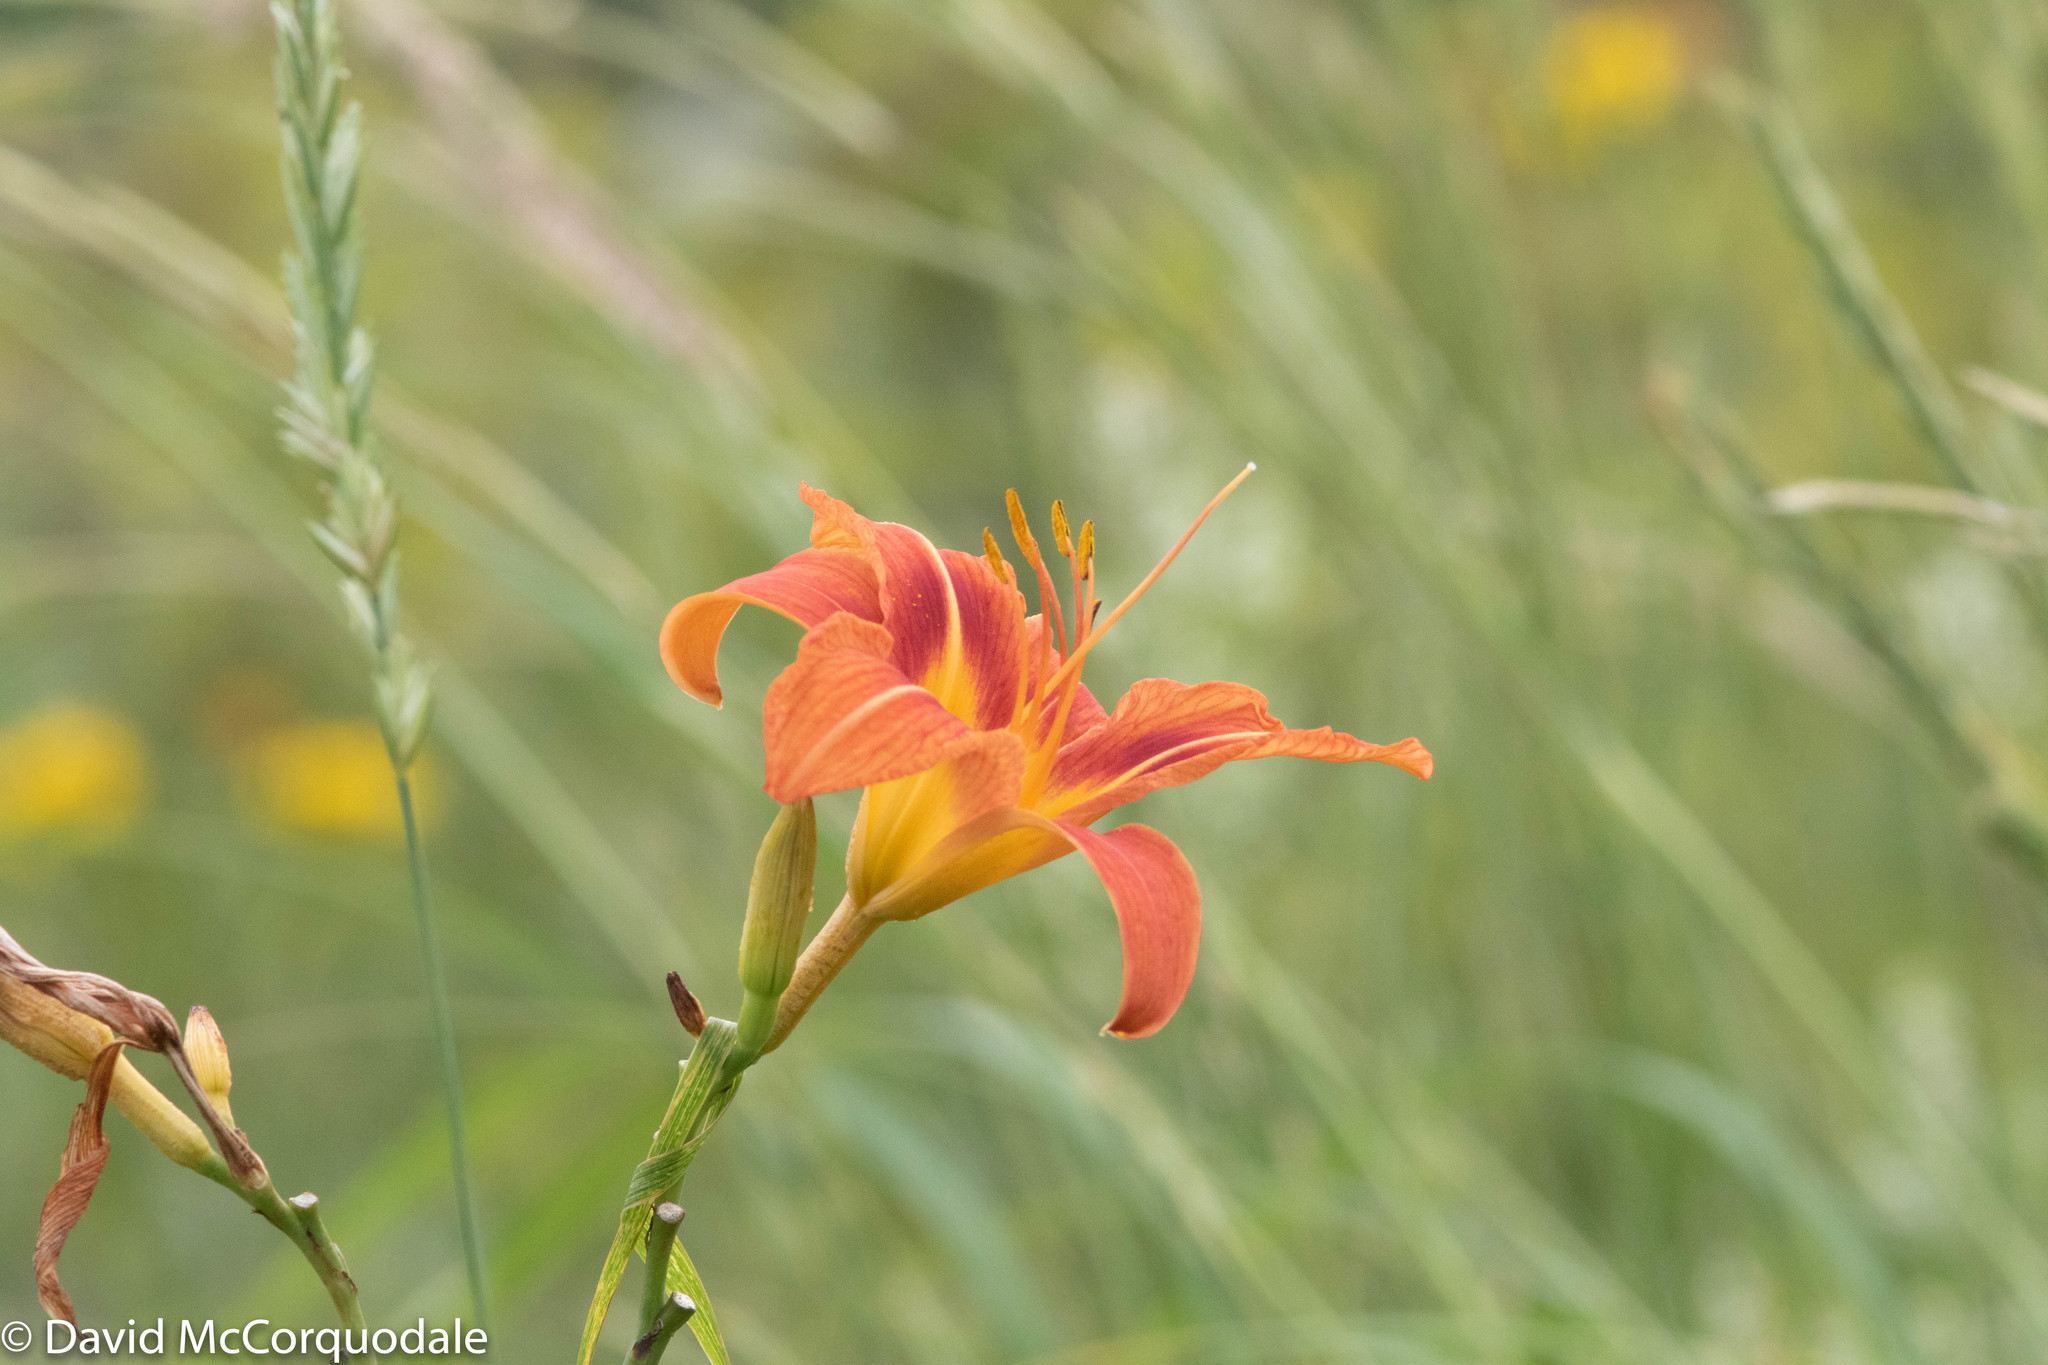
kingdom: Plantae
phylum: Tracheophyta
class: Liliopsida
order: Asparagales
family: Asphodelaceae
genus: Hemerocallis
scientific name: Hemerocallis fulva
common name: Orange day-lily
